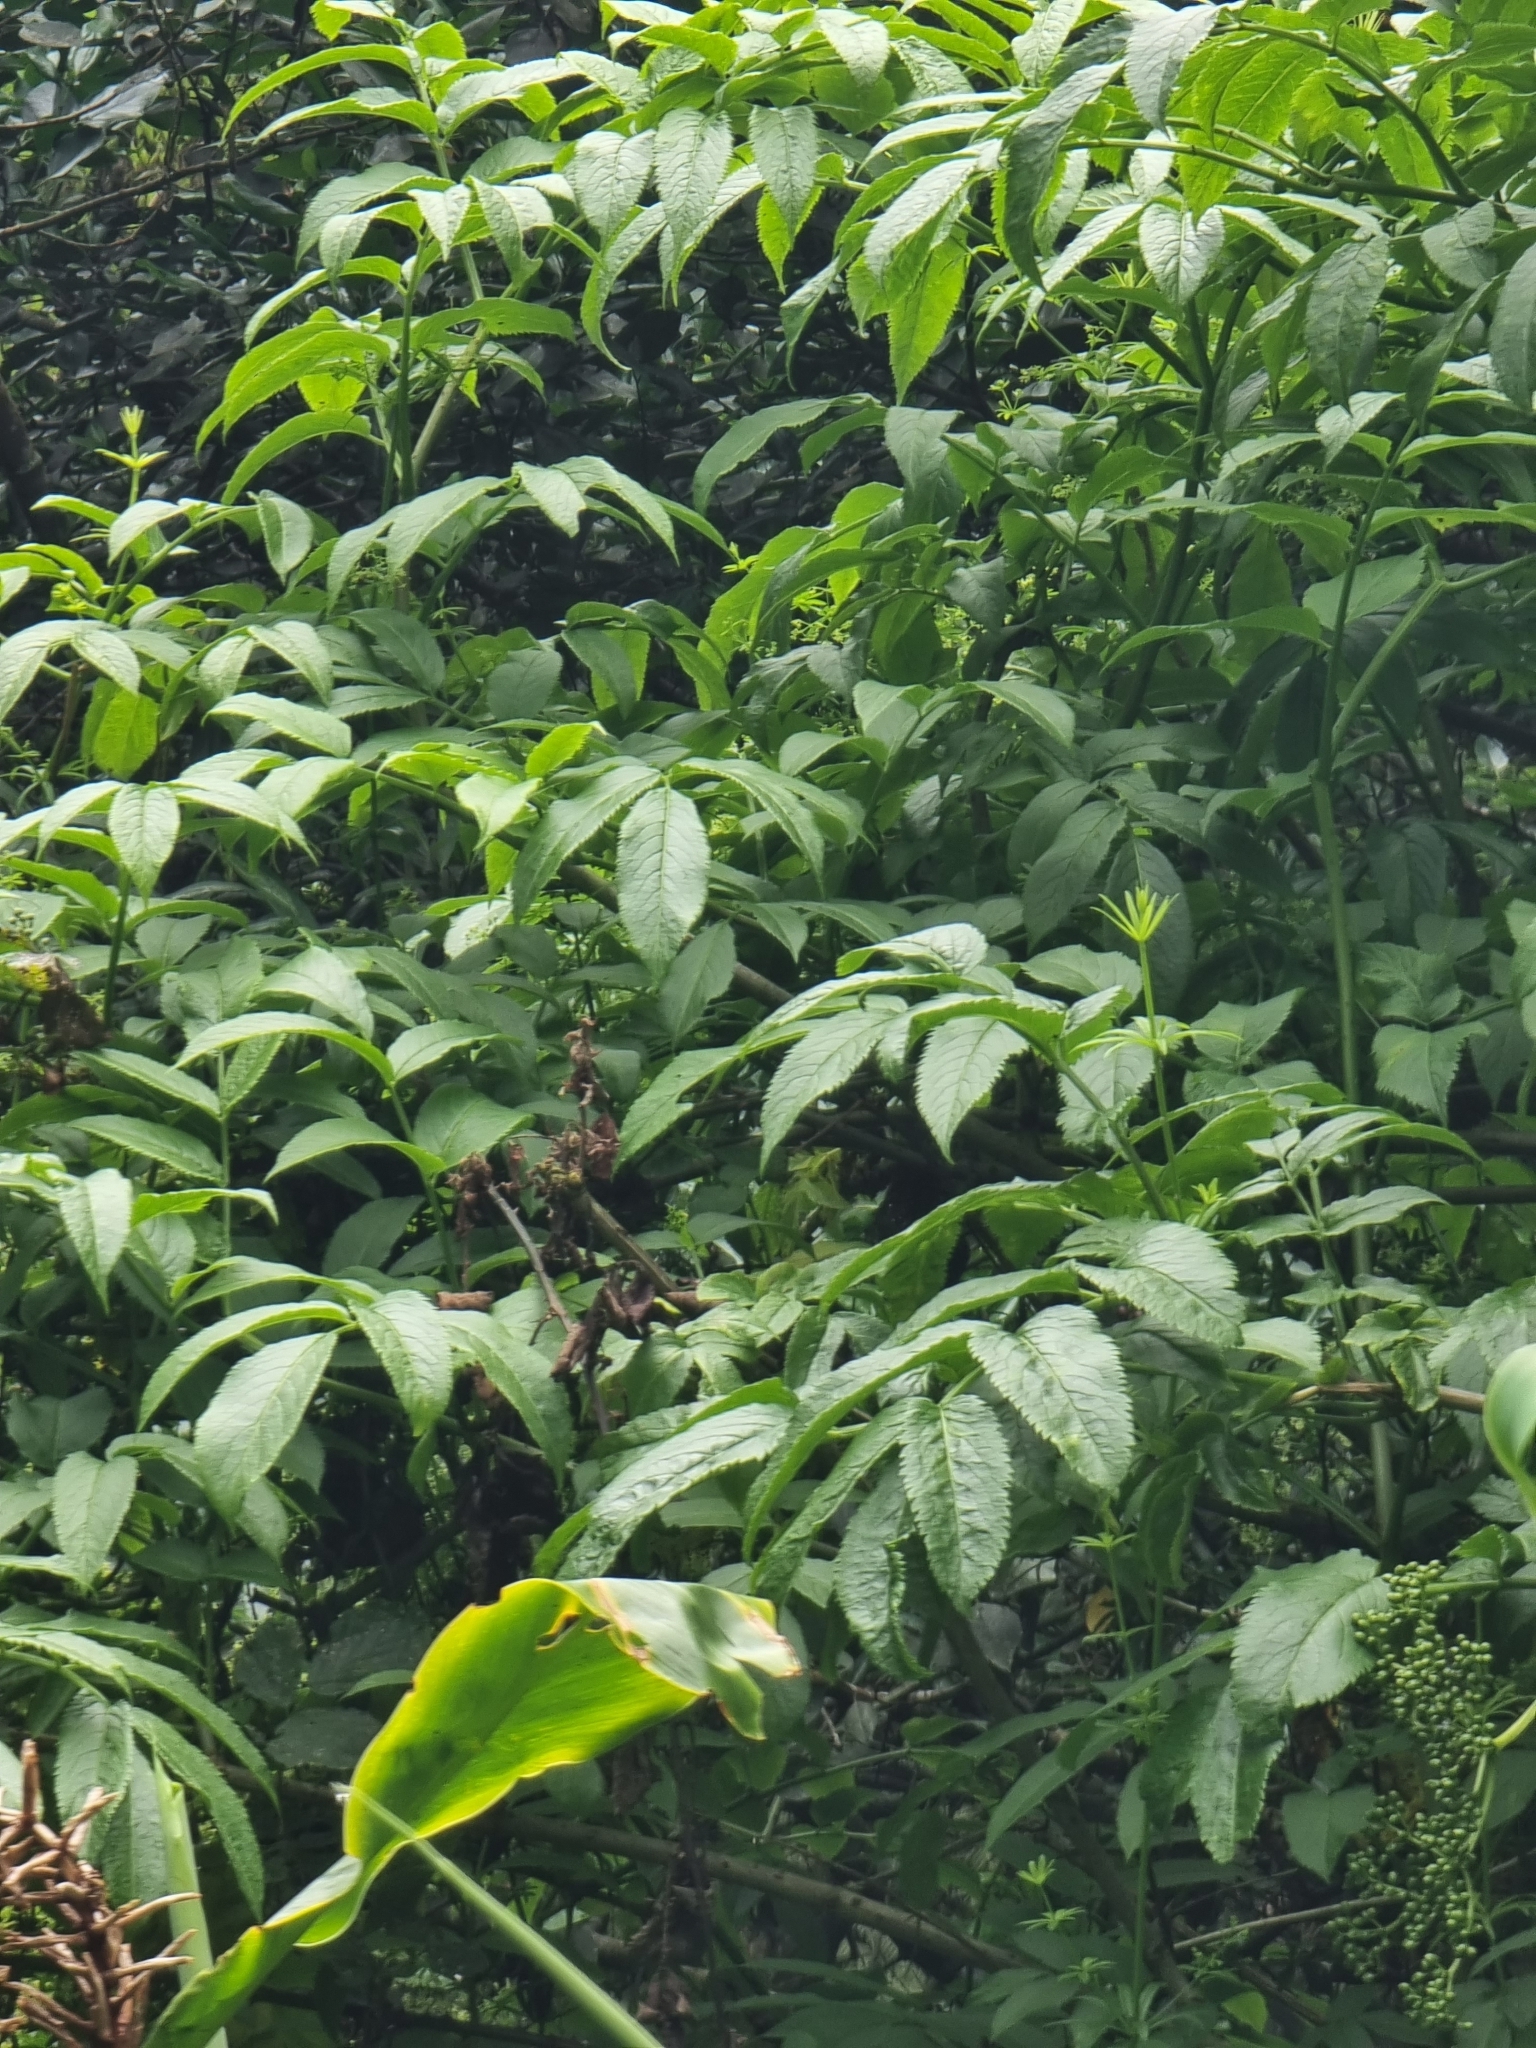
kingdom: Plantae
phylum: Tracheophyta
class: Magnoliopsida
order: Dipsacales
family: Viburnaceae
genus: Sambucus
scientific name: Sambucus lanceolata
